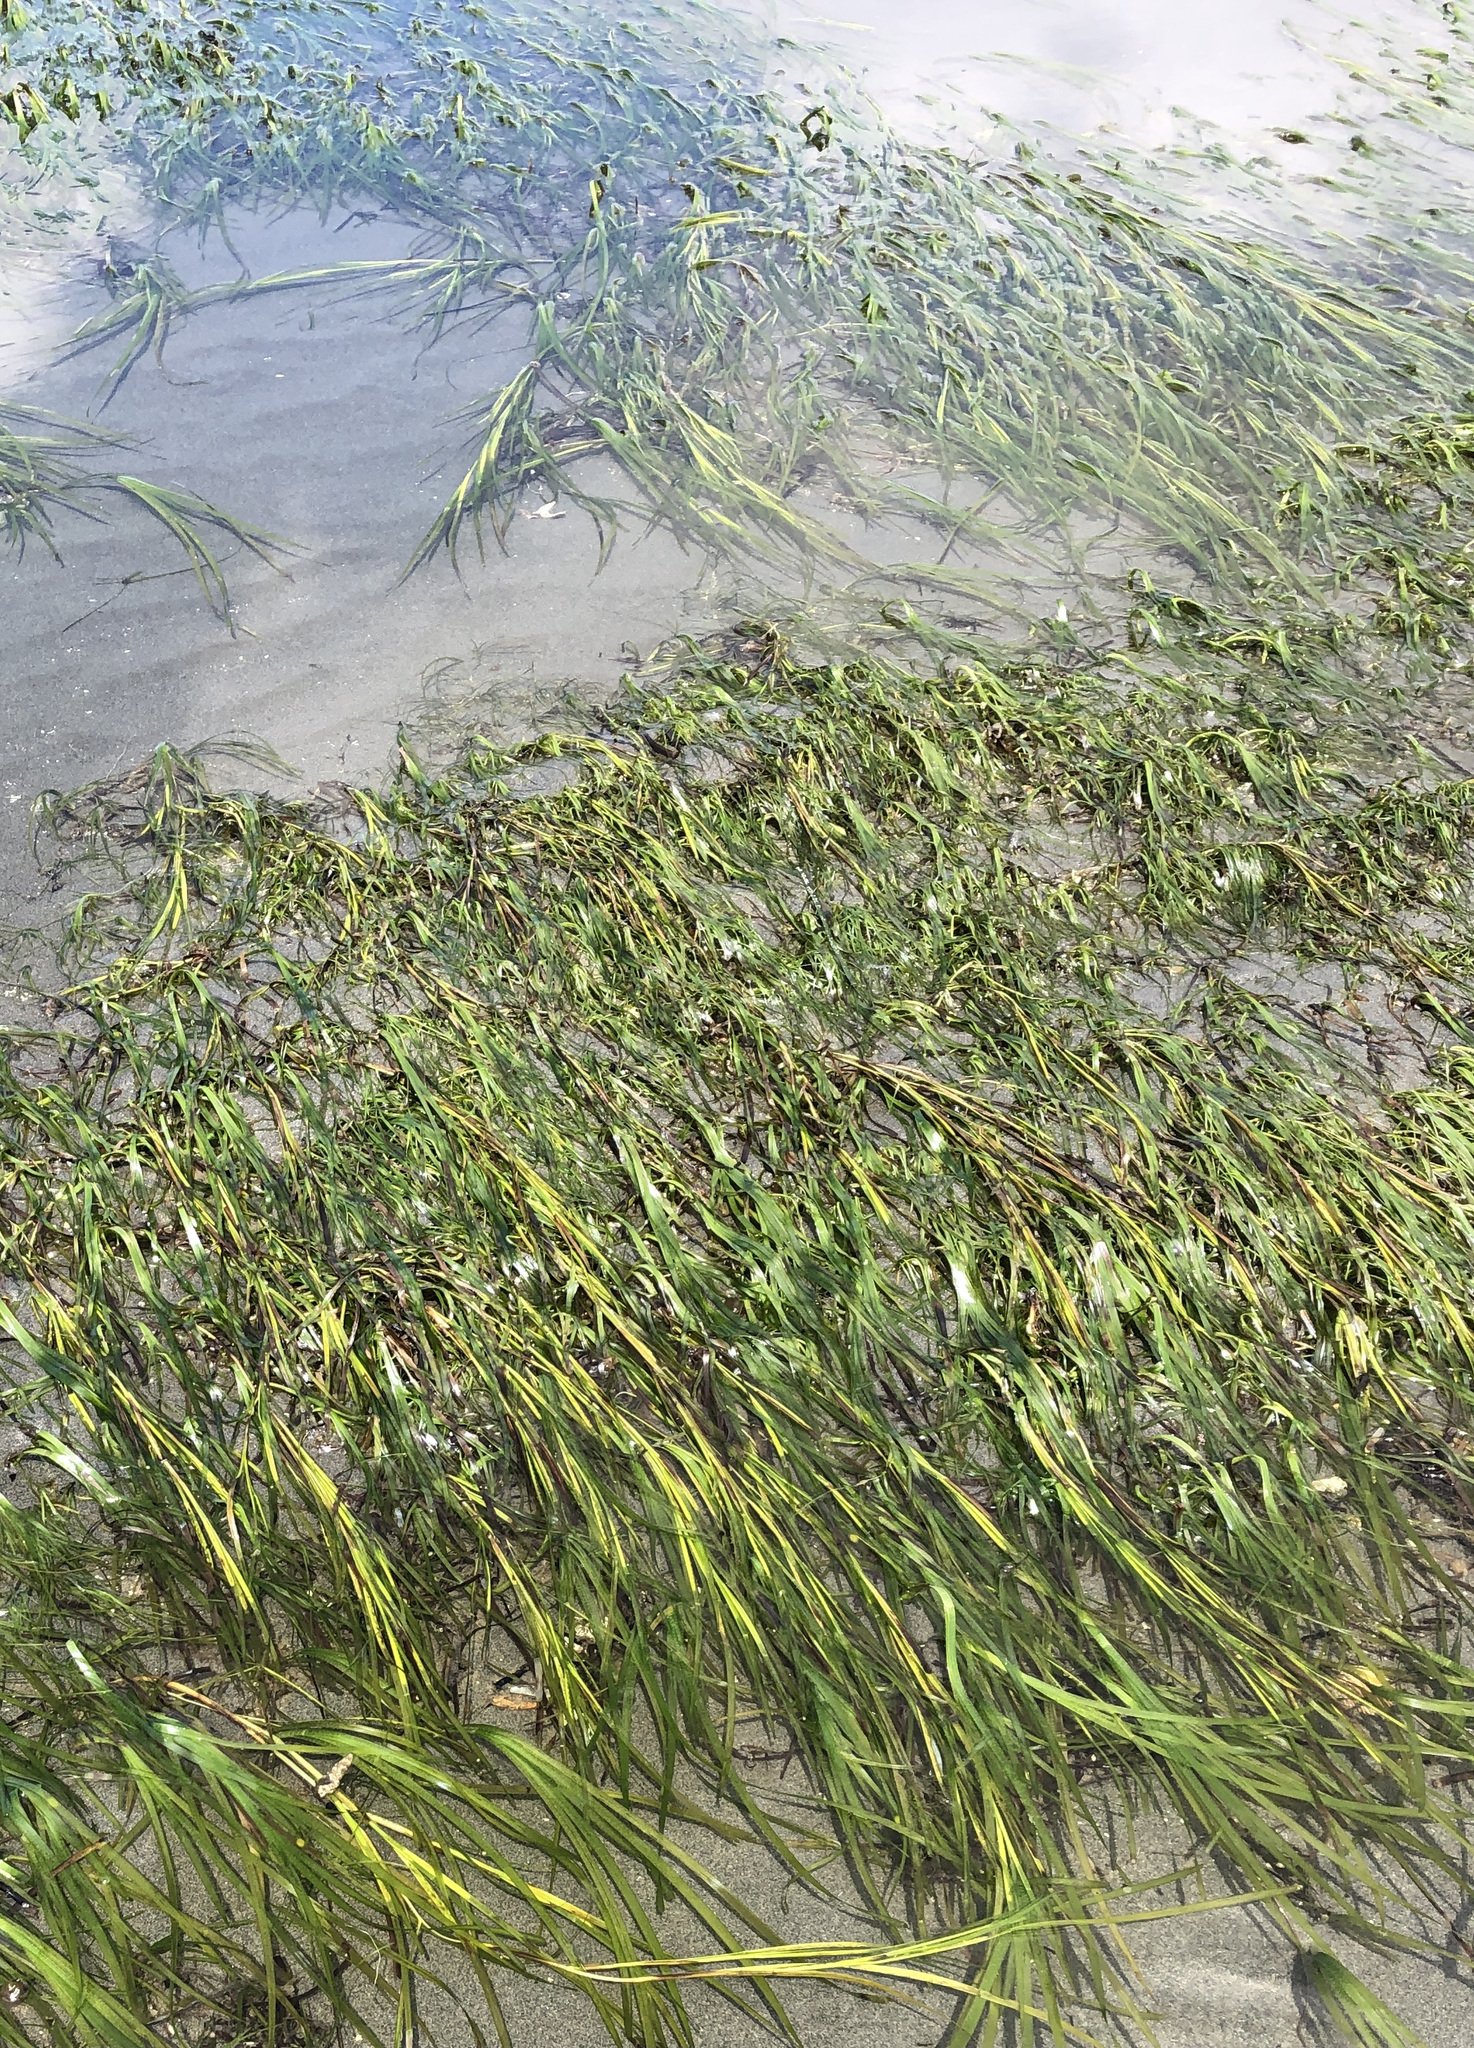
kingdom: Plantae
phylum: Tracheophyta
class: Liliopsida
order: Alismatales
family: Zosteraceae
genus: Zostera
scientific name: Zostera marina
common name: Eelgrass
